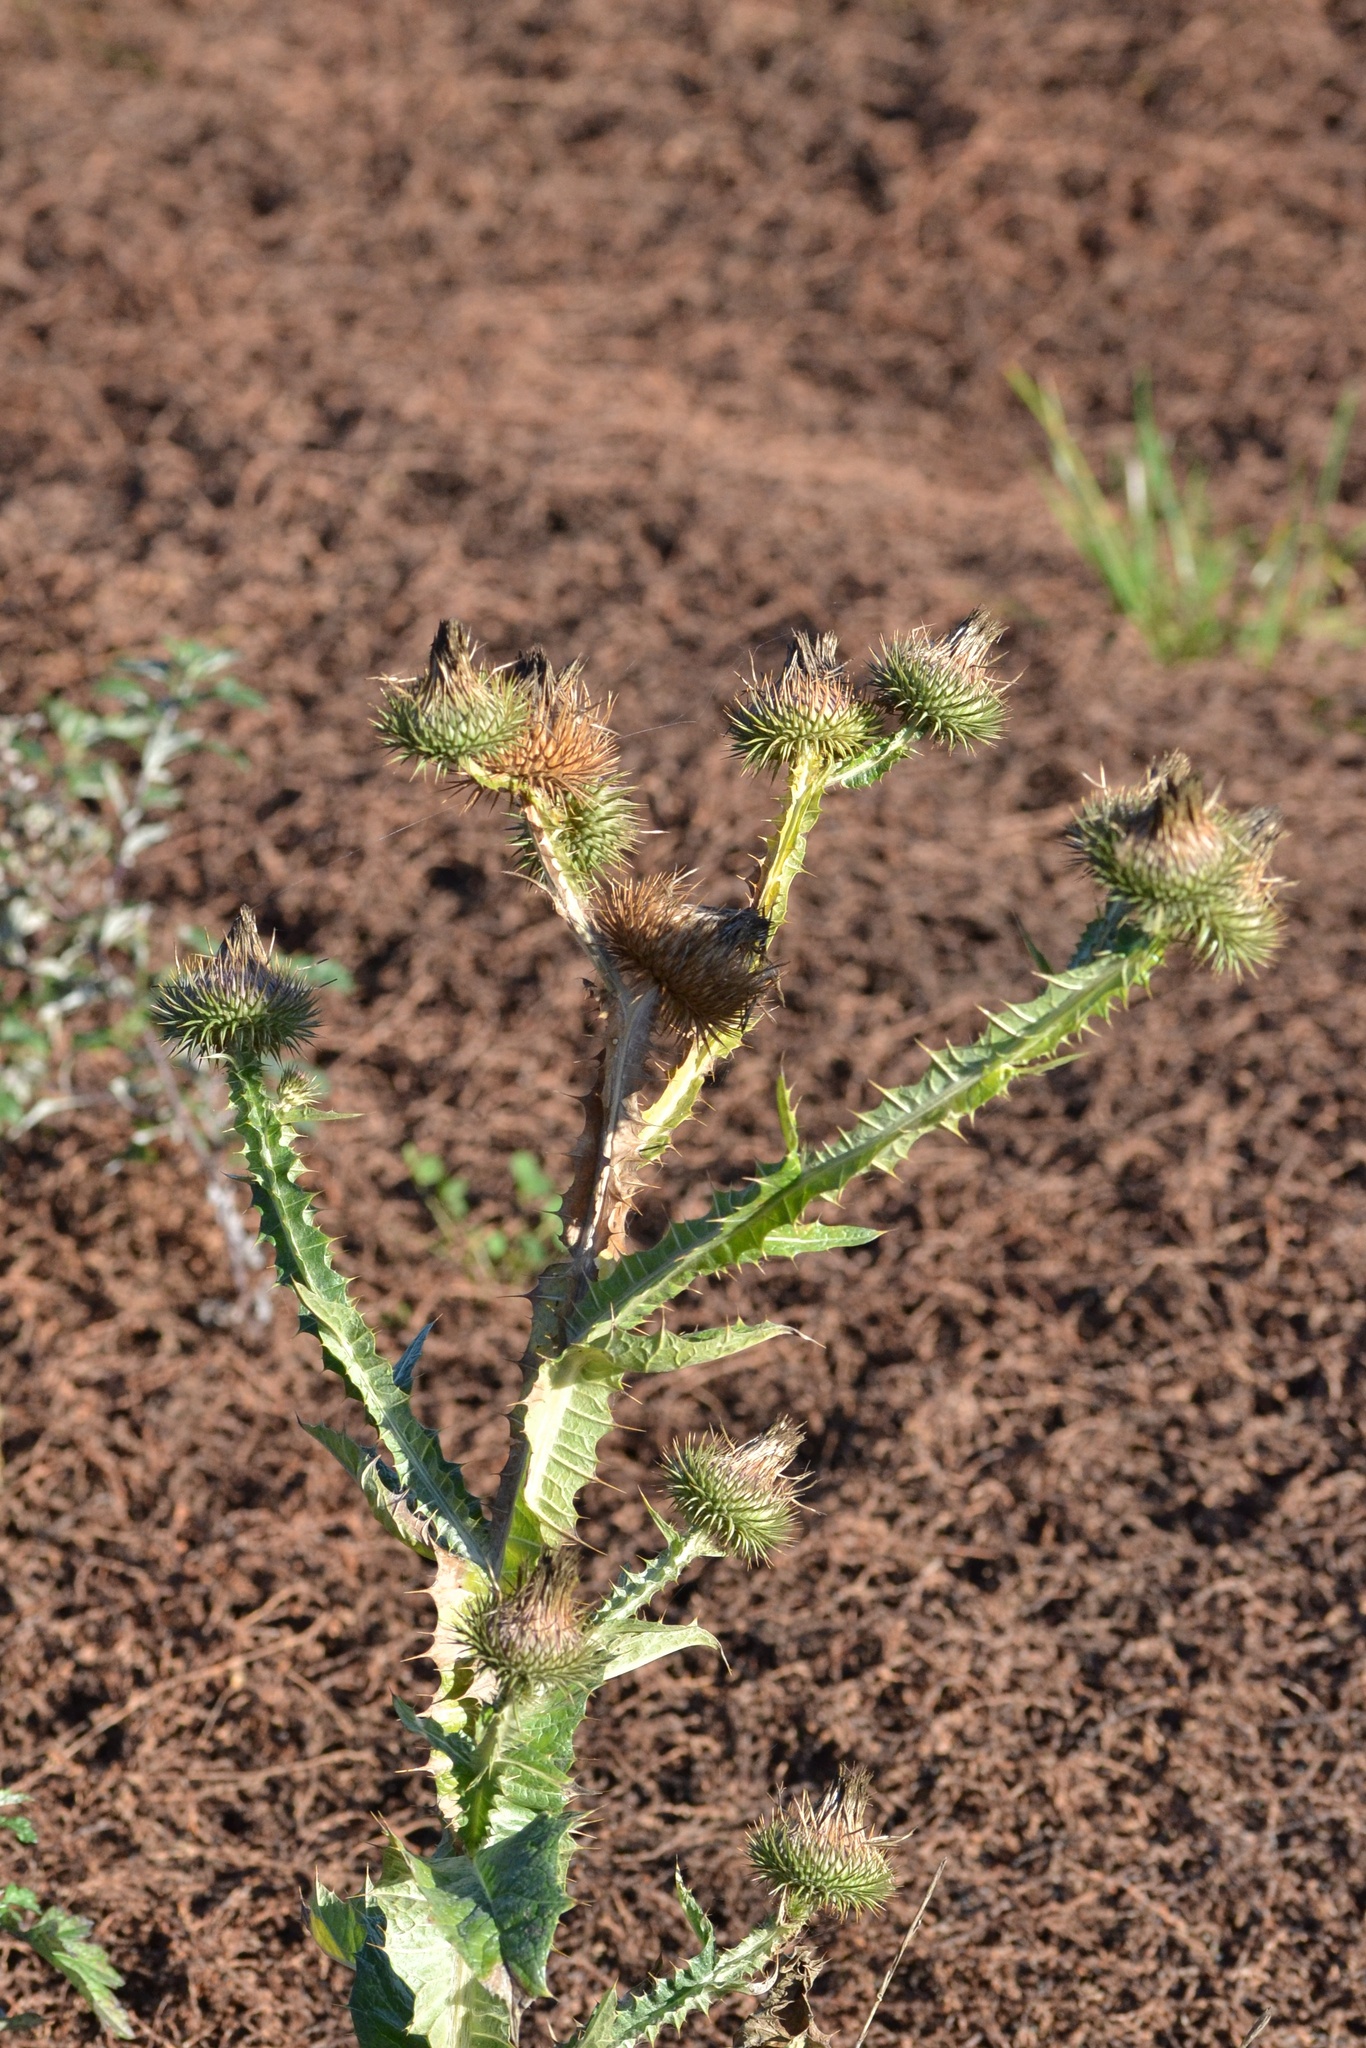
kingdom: Plantae
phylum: Tracheophyta
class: Magnoliopsida
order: Asterales
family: Asteraceae
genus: Onopordum
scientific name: Onopordum acanthium
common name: Scotch thistle
